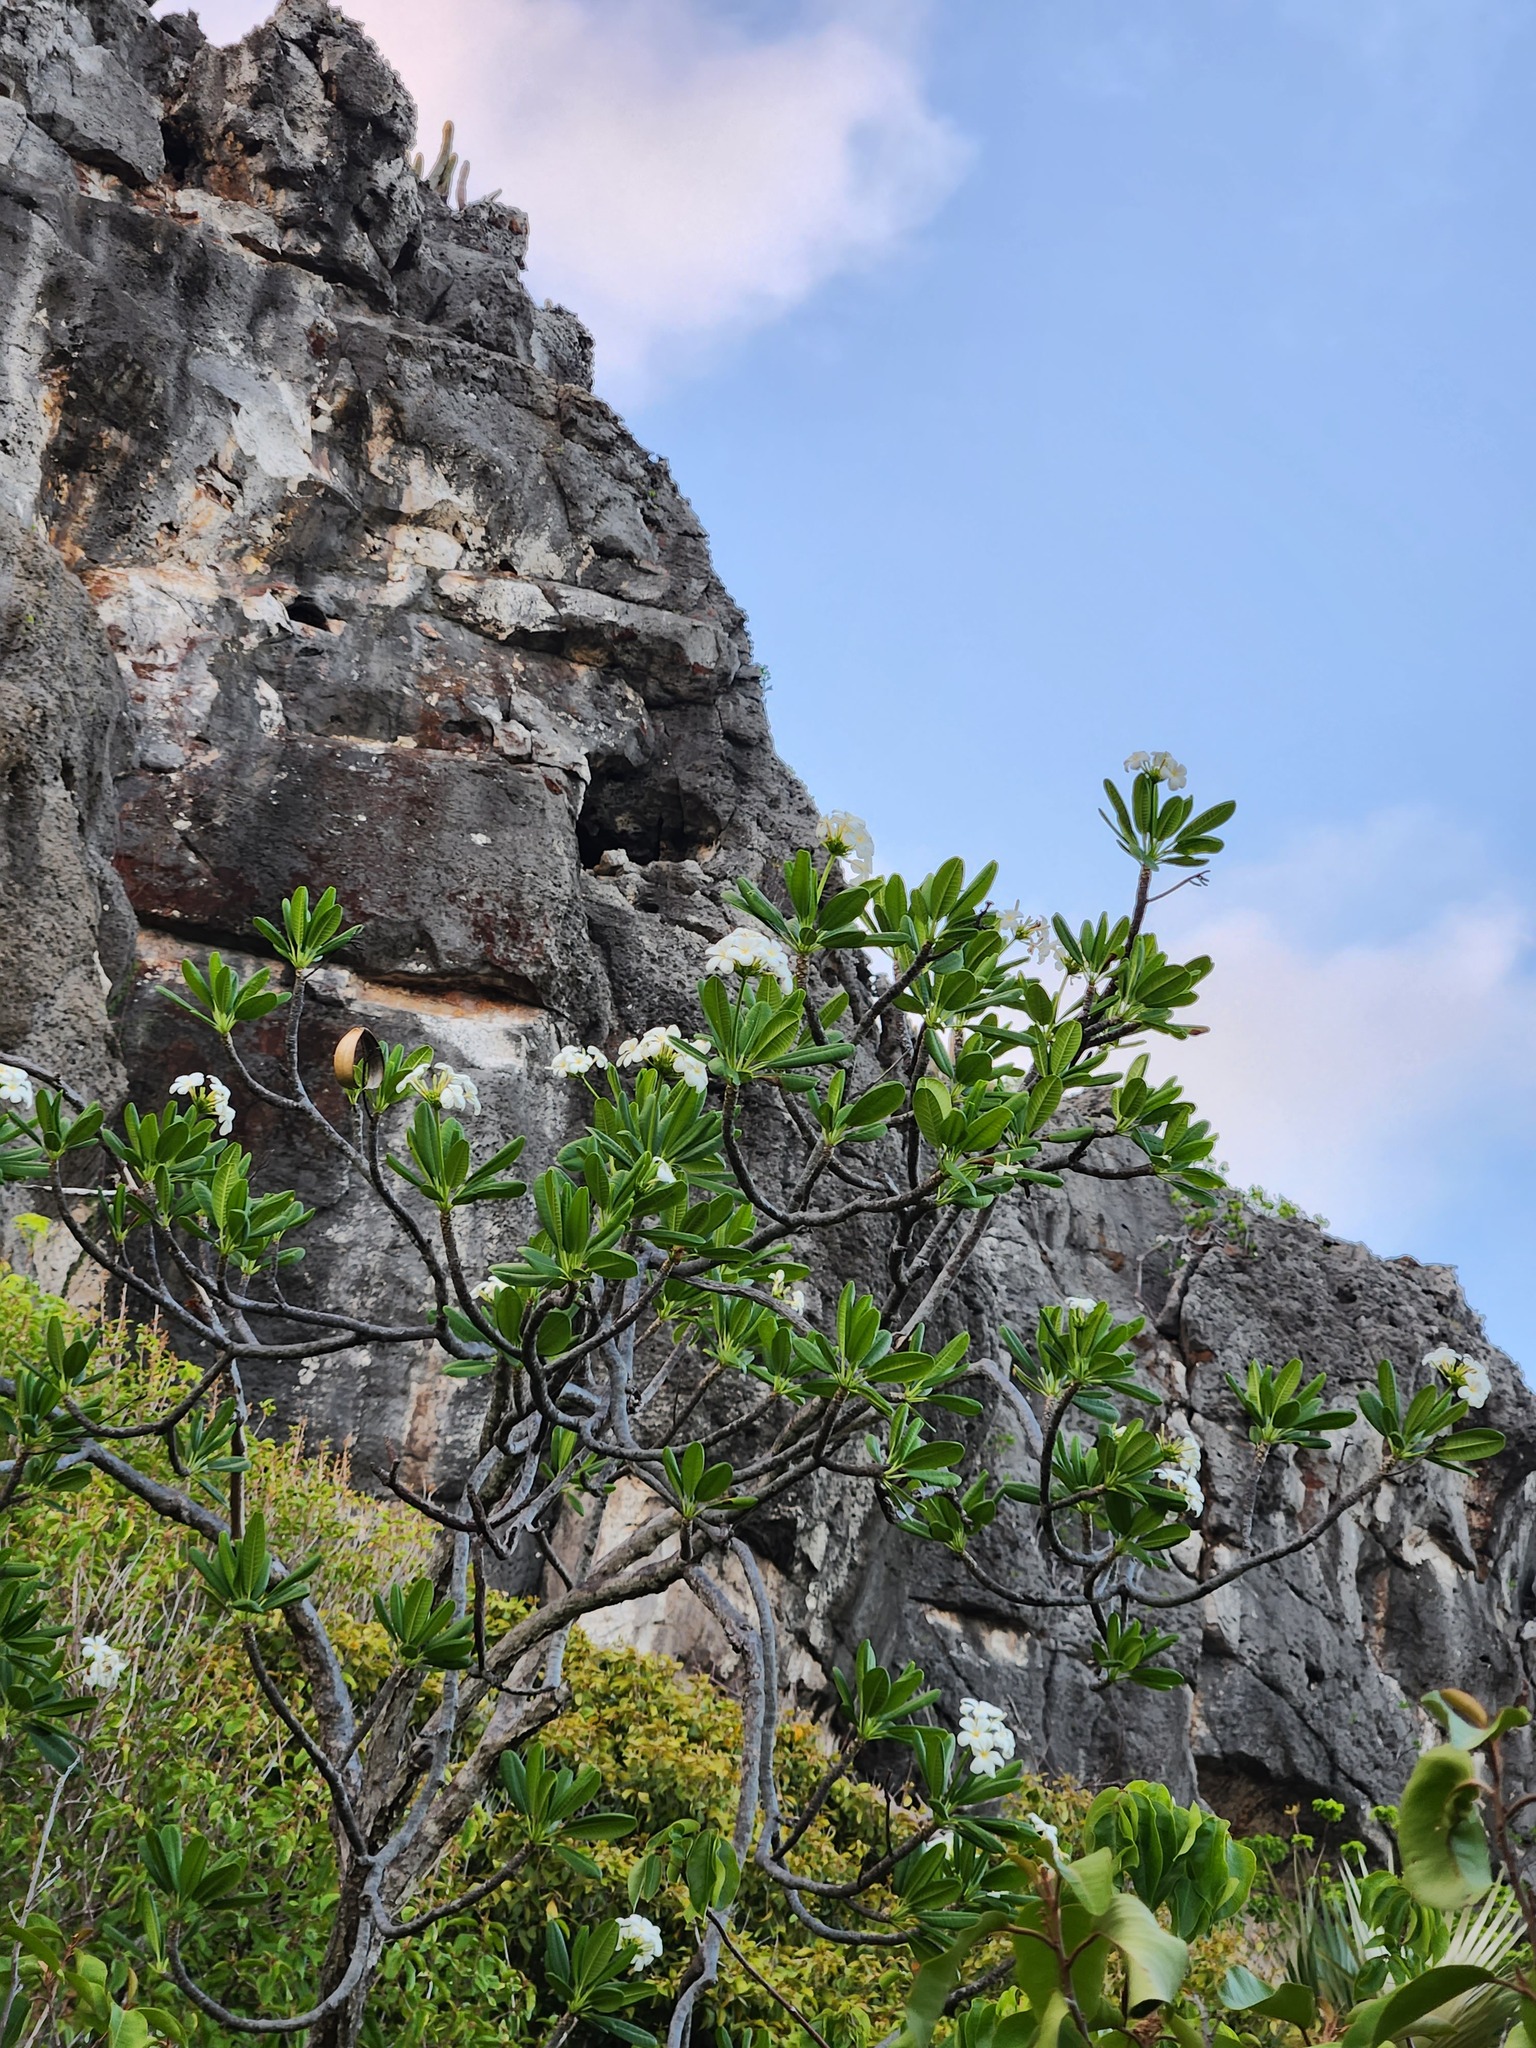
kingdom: Plantae
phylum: Tracheophyta
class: Magnoliopsida
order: Gentianales
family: Apocynaceae
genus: Plumeria
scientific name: Plumeria obtusa
